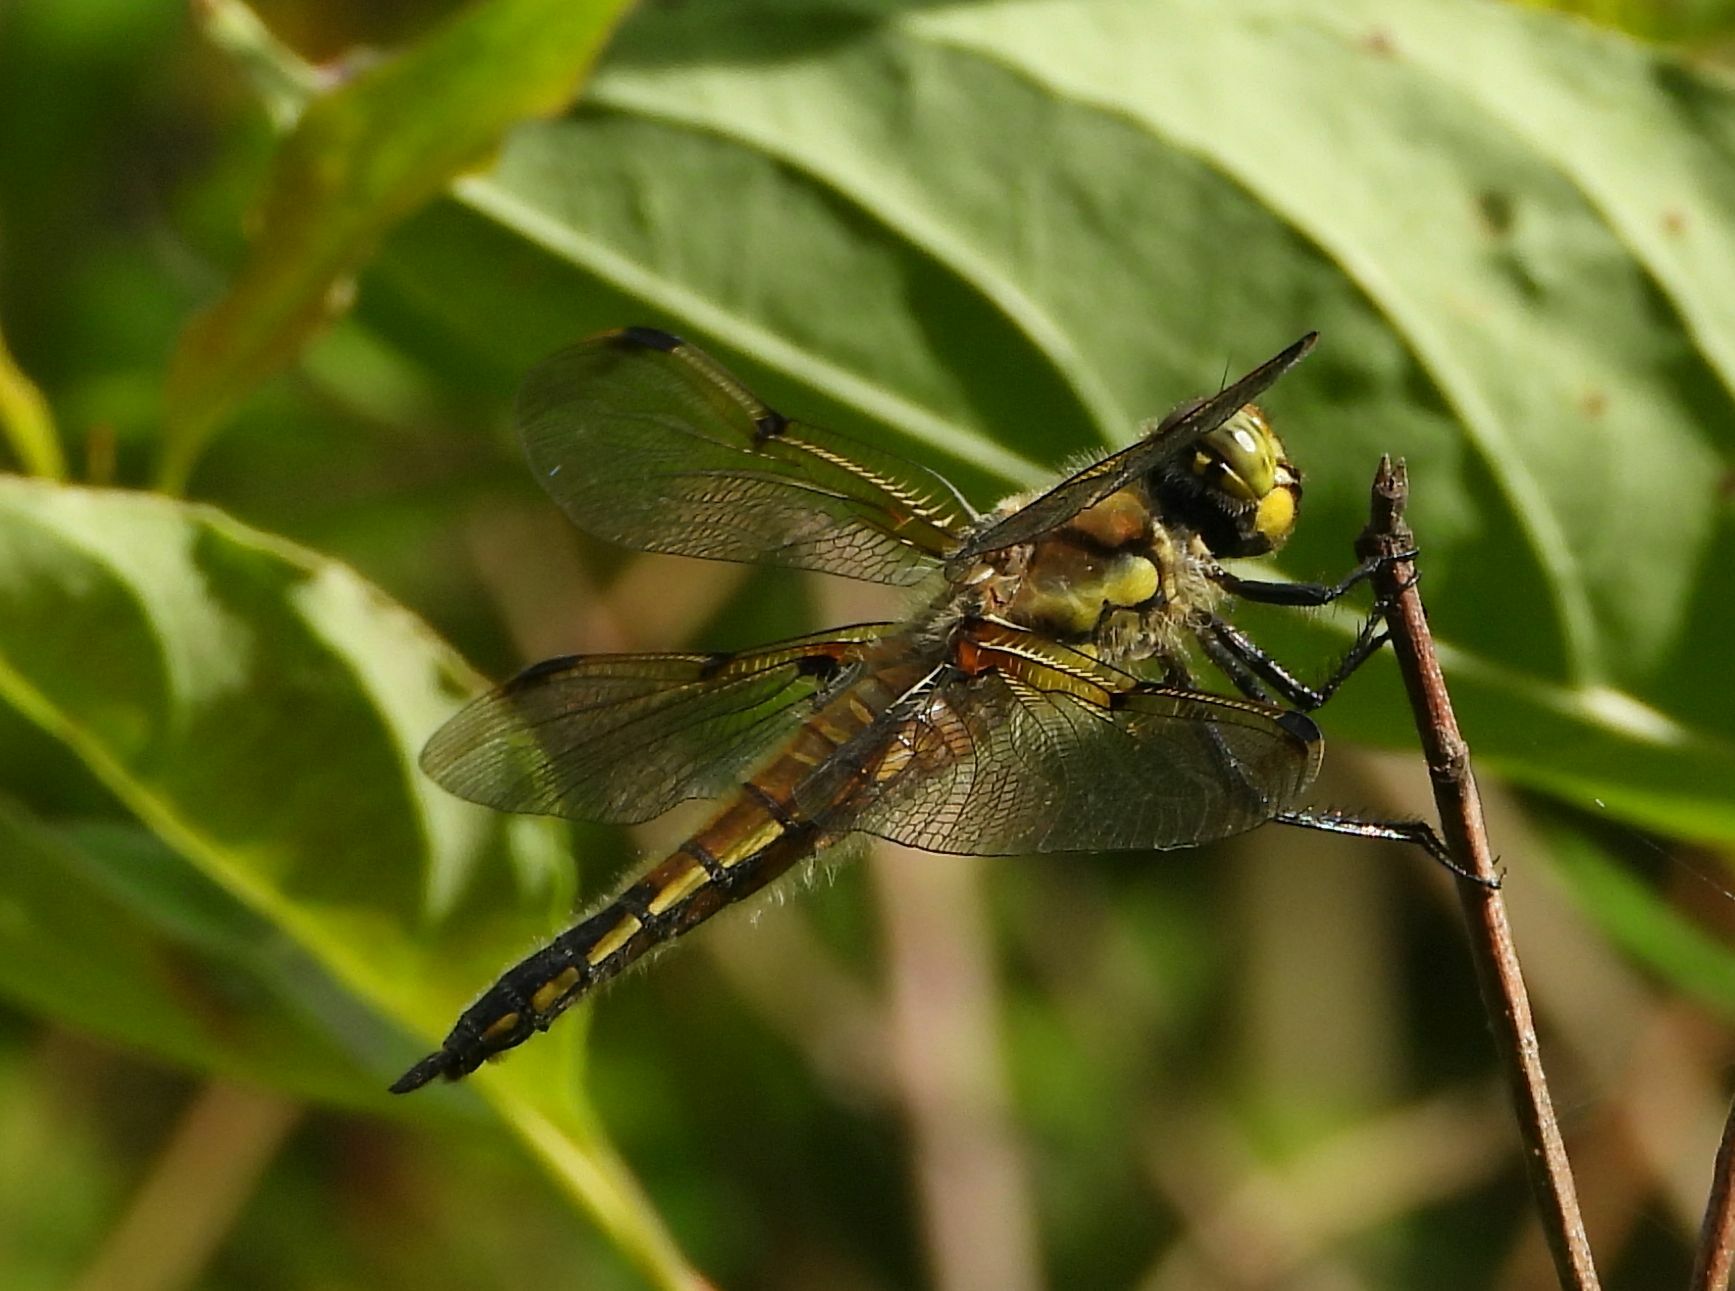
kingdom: Animalia
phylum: Arthropoda
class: Insecta
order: Odonata
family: Libellulidae
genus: Libellula
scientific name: Libellula quadrimaculata
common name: Four-spotted chaser
